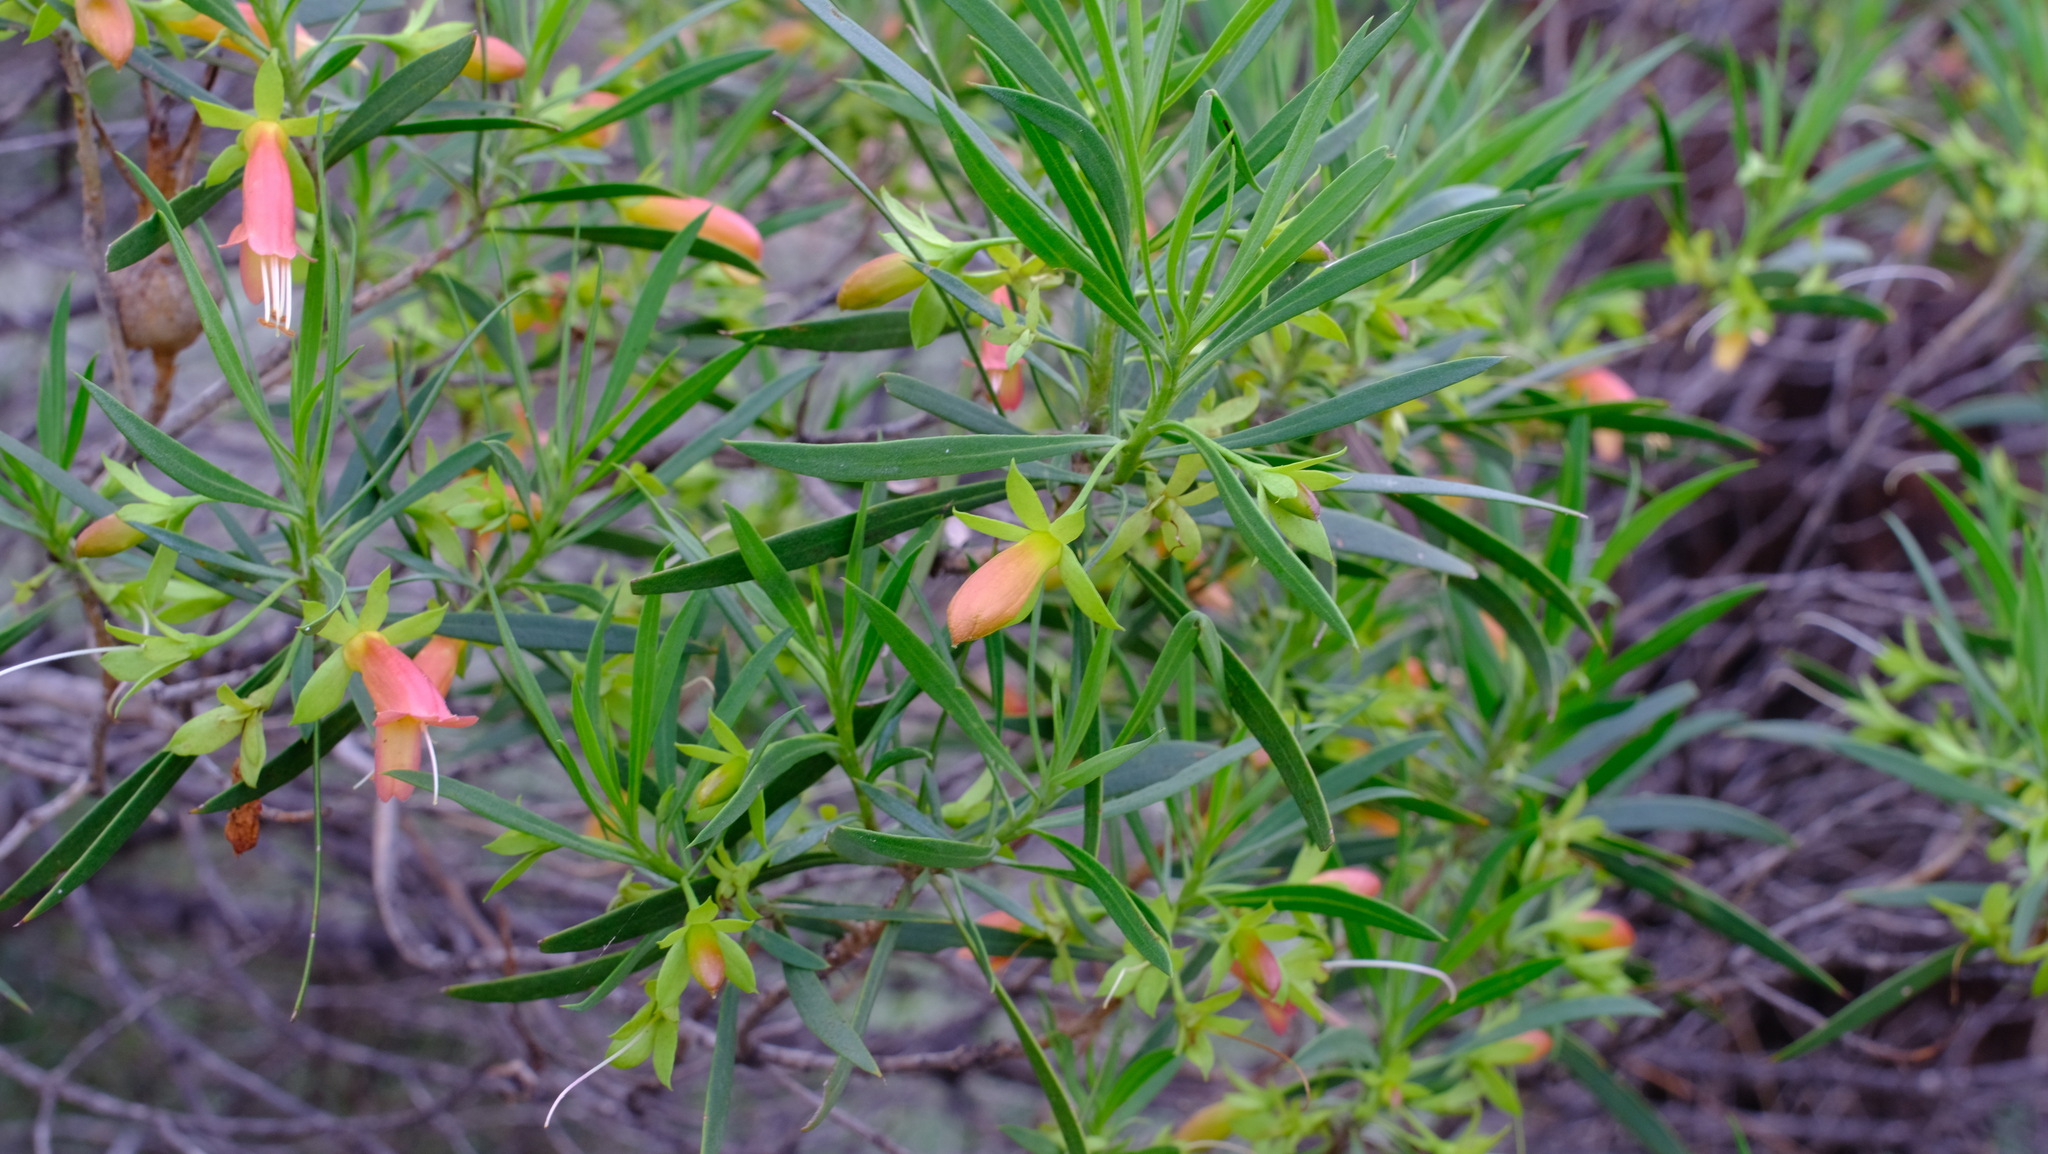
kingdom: Plantae
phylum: Tracheophyta
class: Magnoliopsida
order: Lamiales
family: Scrophulariaceae
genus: Eremophila
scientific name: Eremophila oldfieldii
